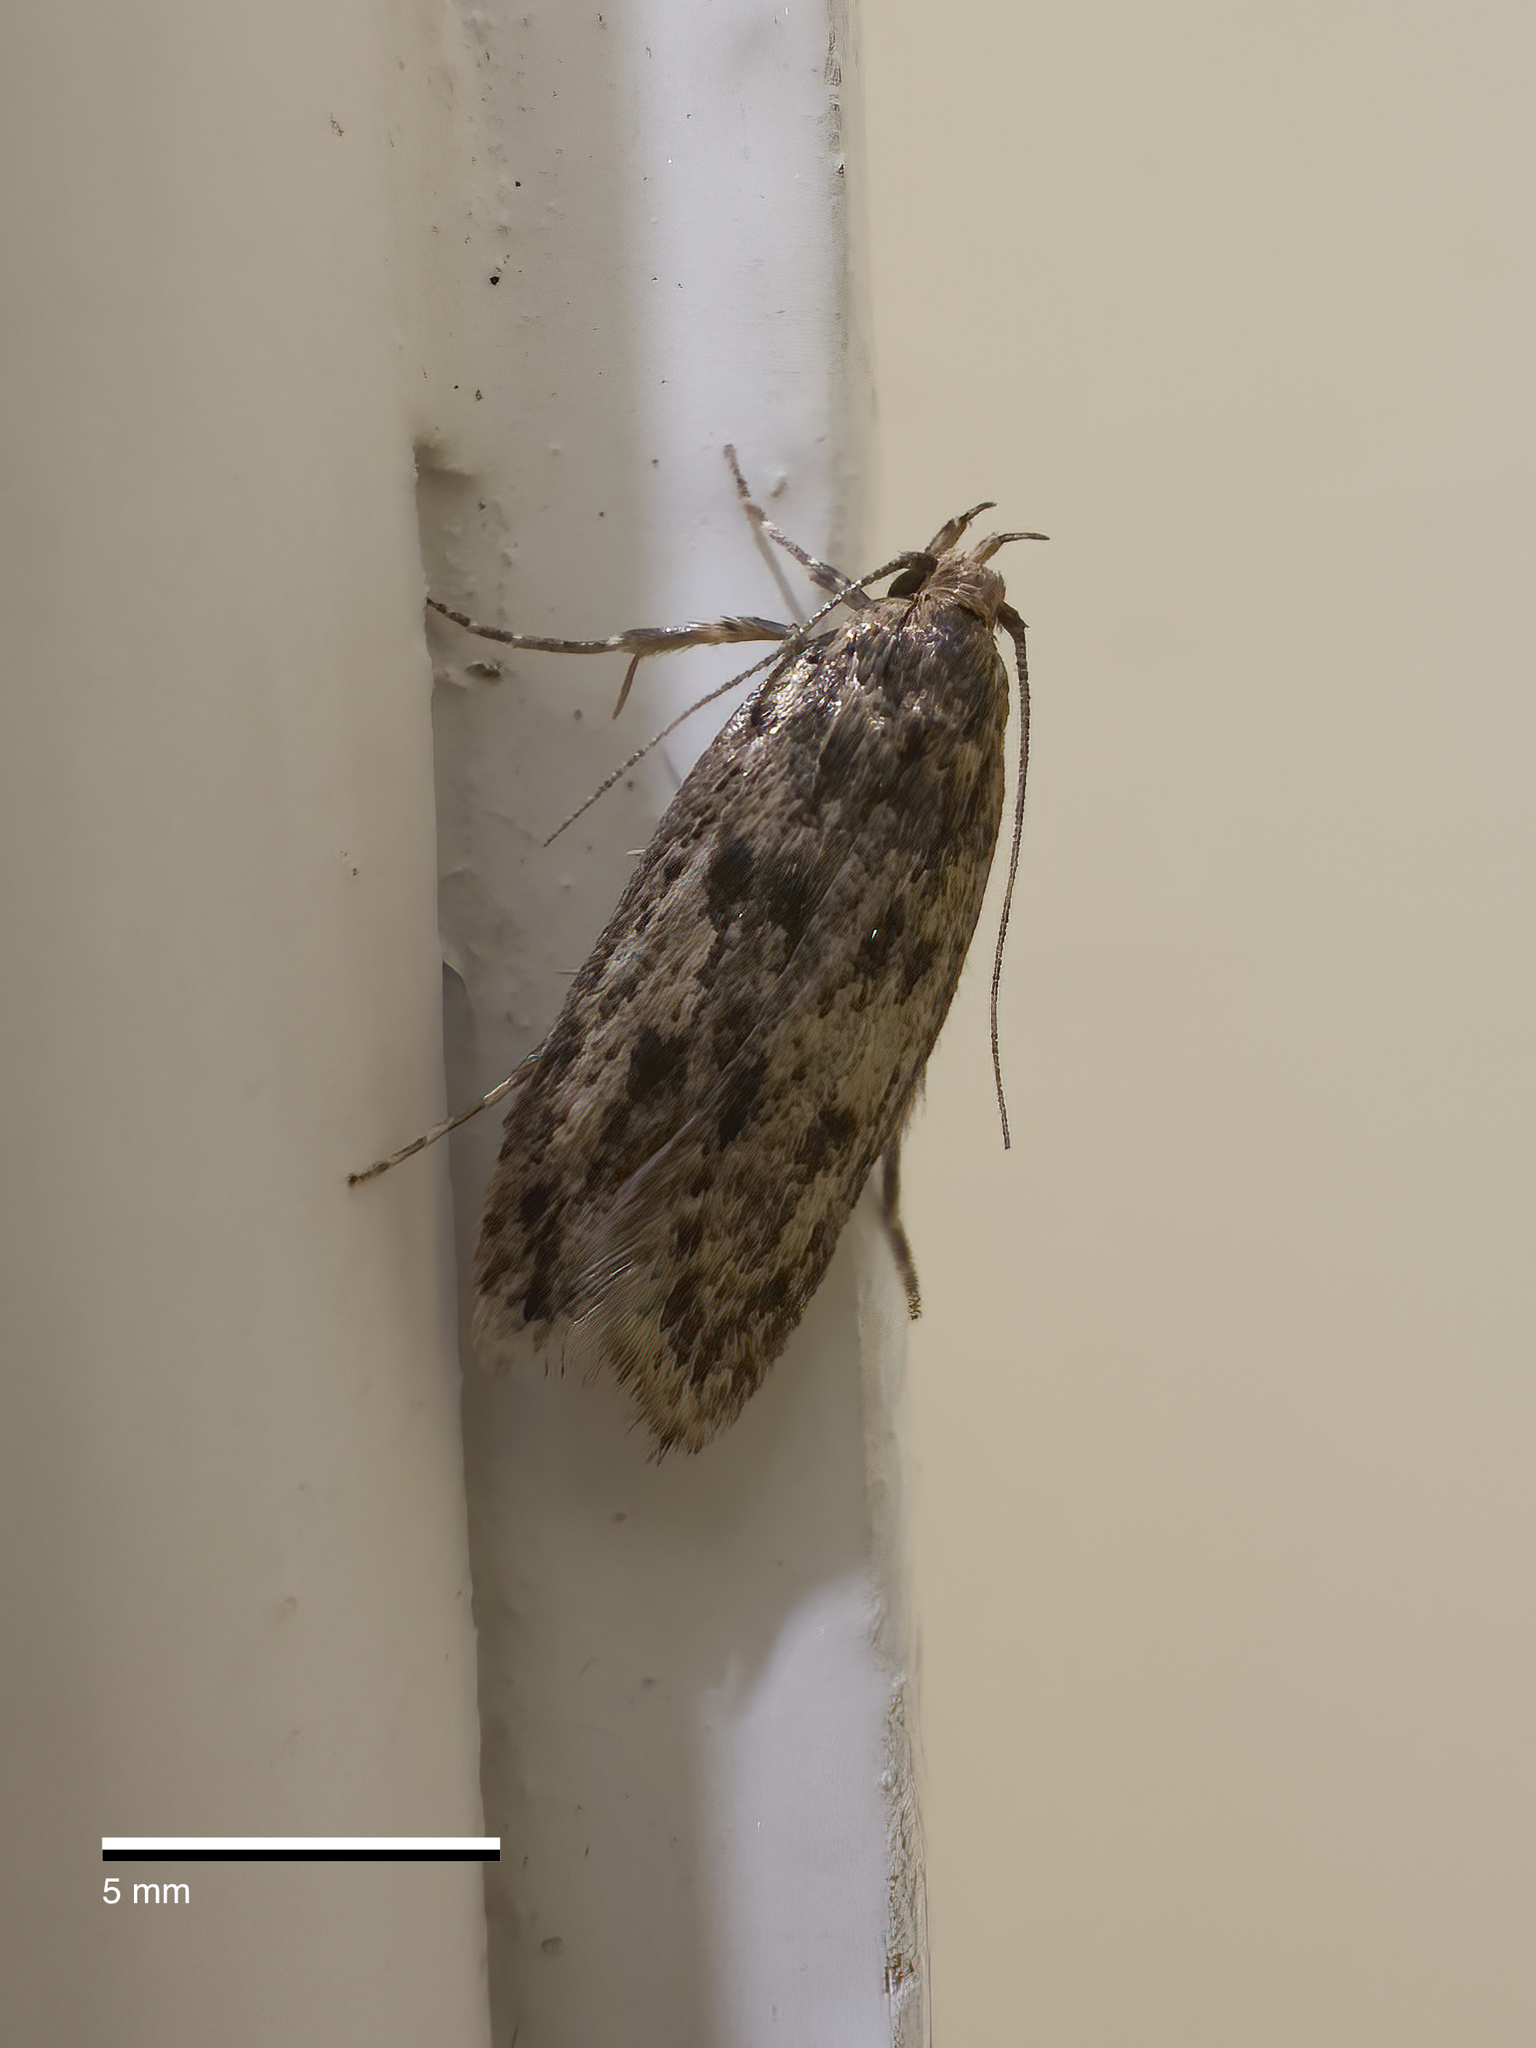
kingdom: Animalia
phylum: Arthropoda
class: Insecta
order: Lepidoptera
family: Oecophoridae
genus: Hofmannophila
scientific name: Hofmannophila pseudospretella
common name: Brown house moth
